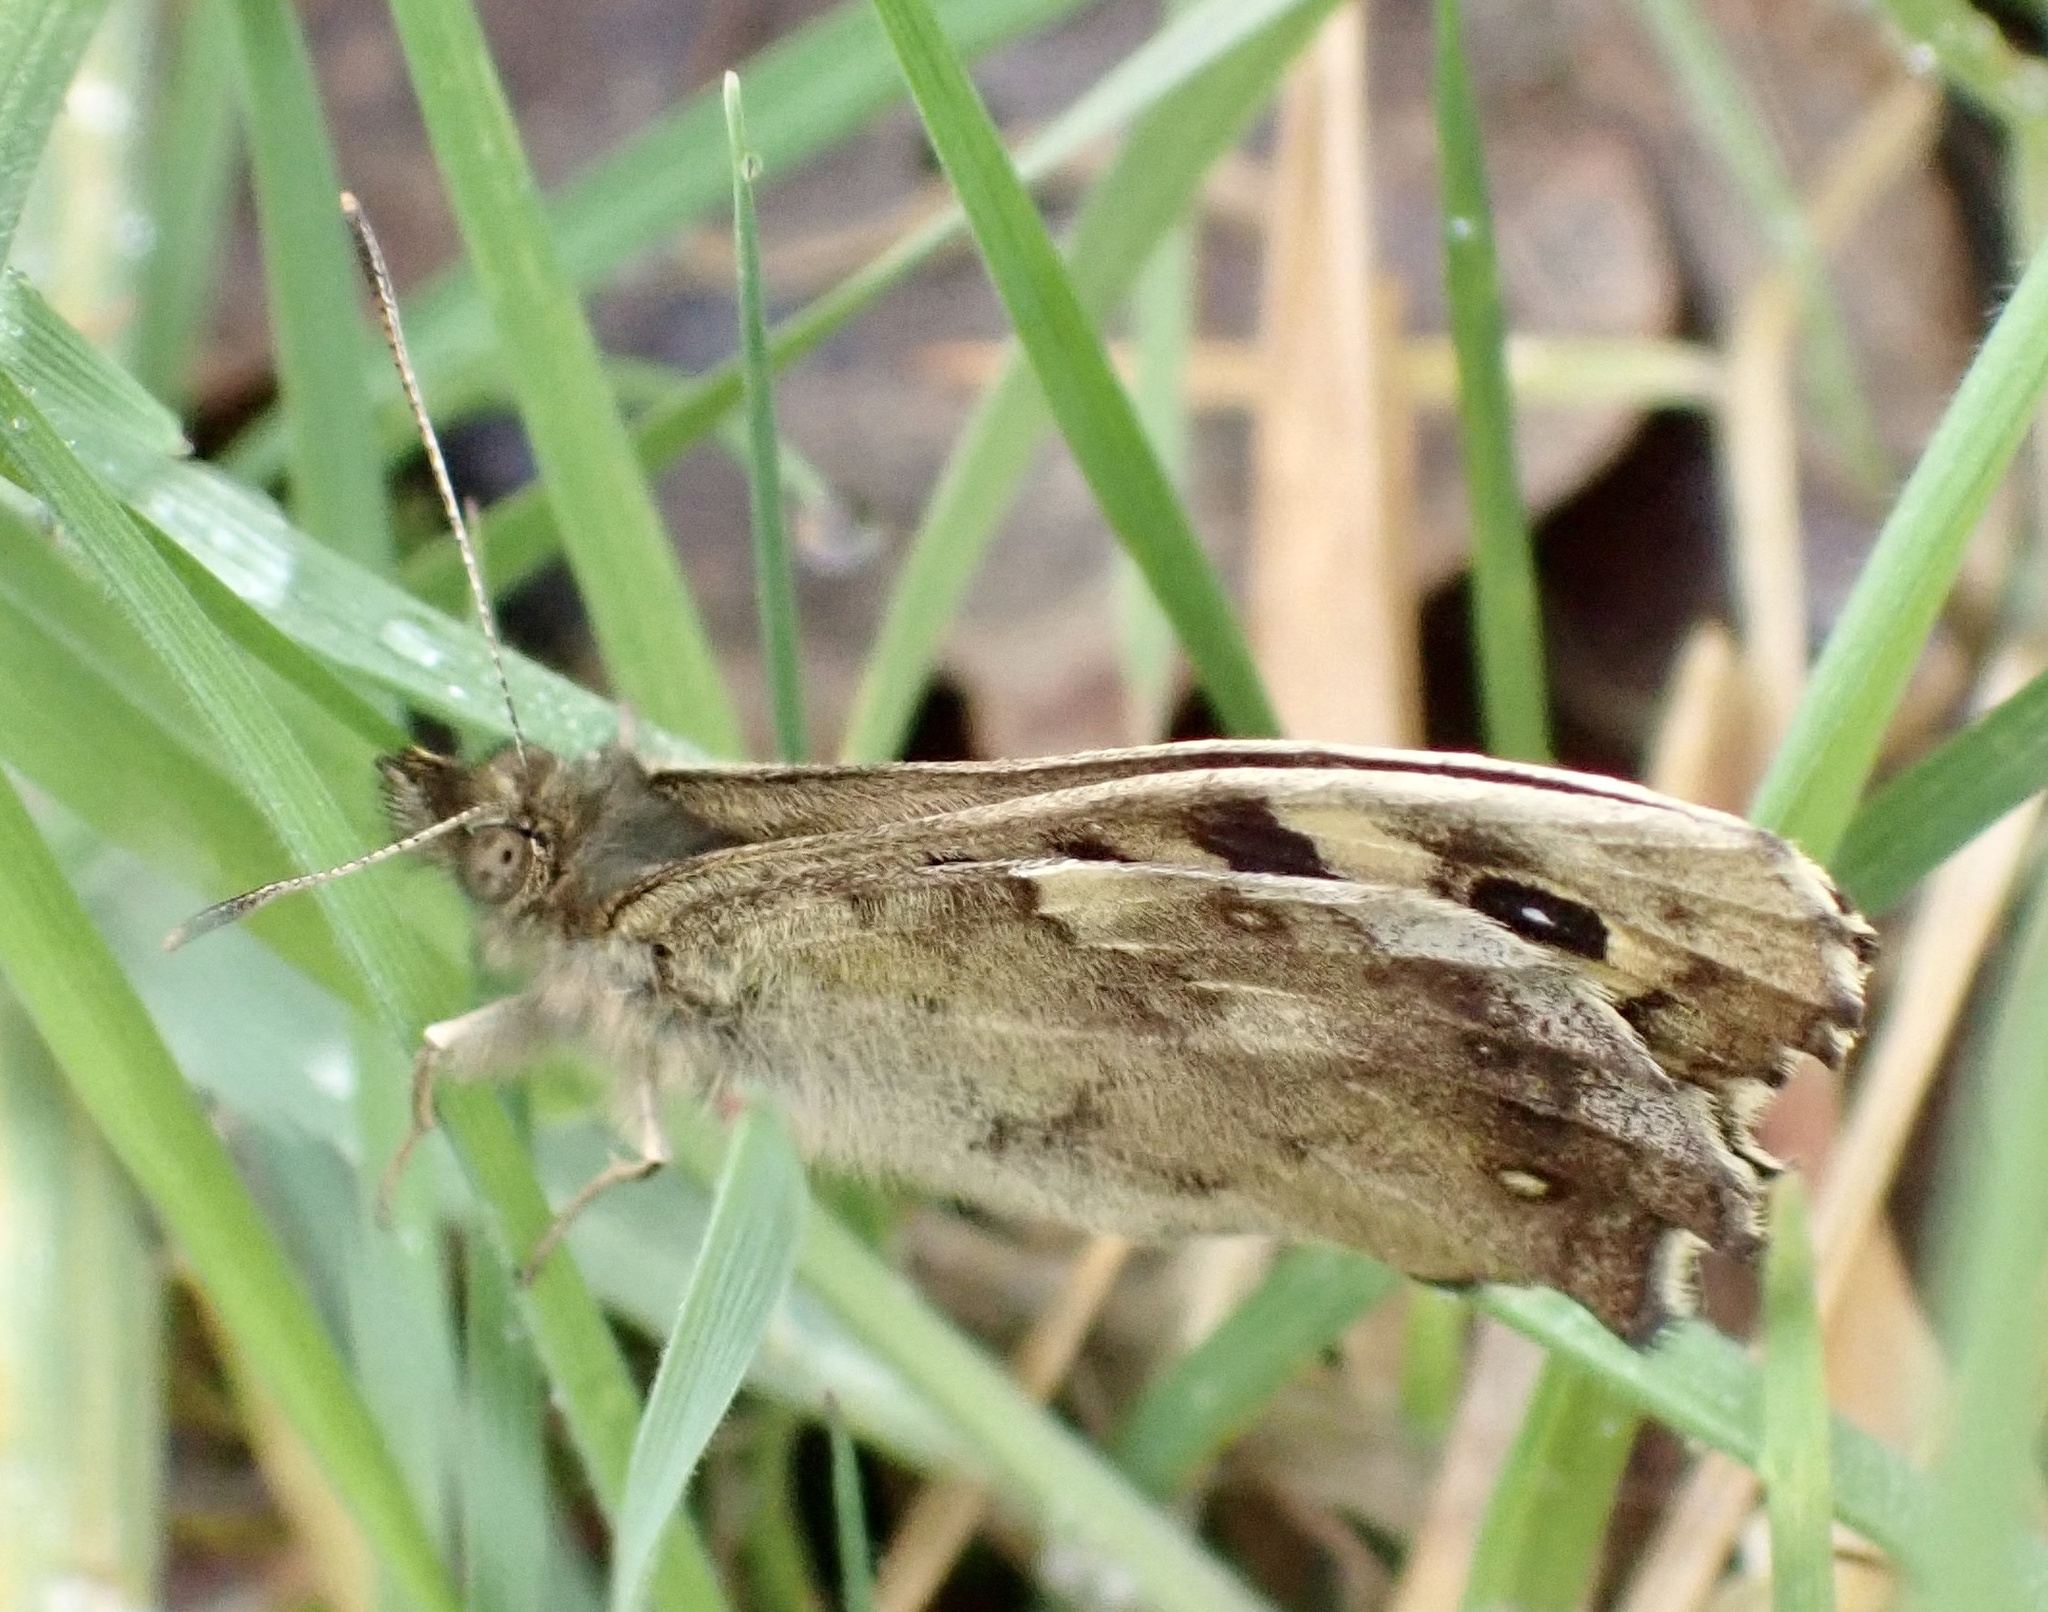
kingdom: Animalia
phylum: Arthropoda
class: Insecta
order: Lepidoptera
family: Nymphalidae
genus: Pararge
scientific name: Pararge aegeria
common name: Speckled wood
